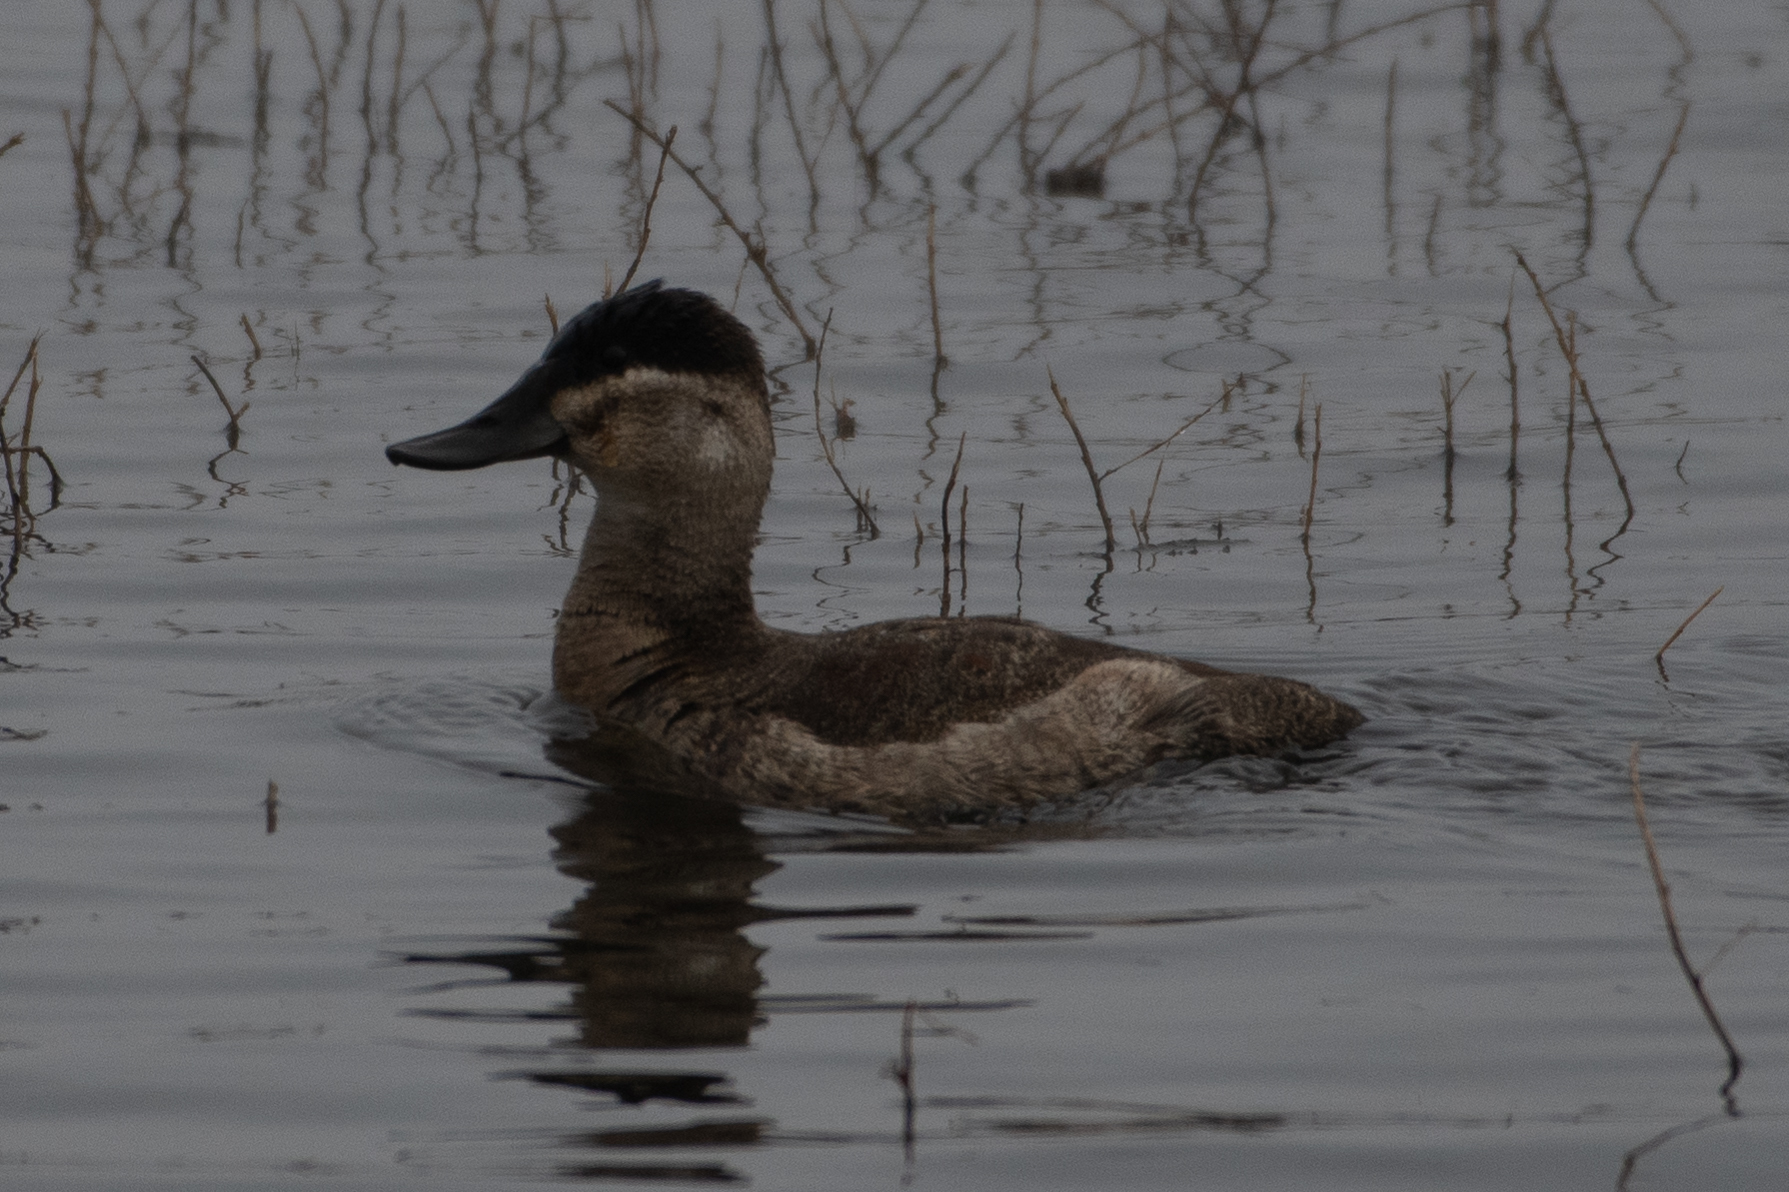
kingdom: Animalia
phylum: Chordata
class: Aves
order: Anseriformes
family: Anatidae
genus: Oxyura
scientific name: Oxyura jamaicensis
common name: Ruddy duck
